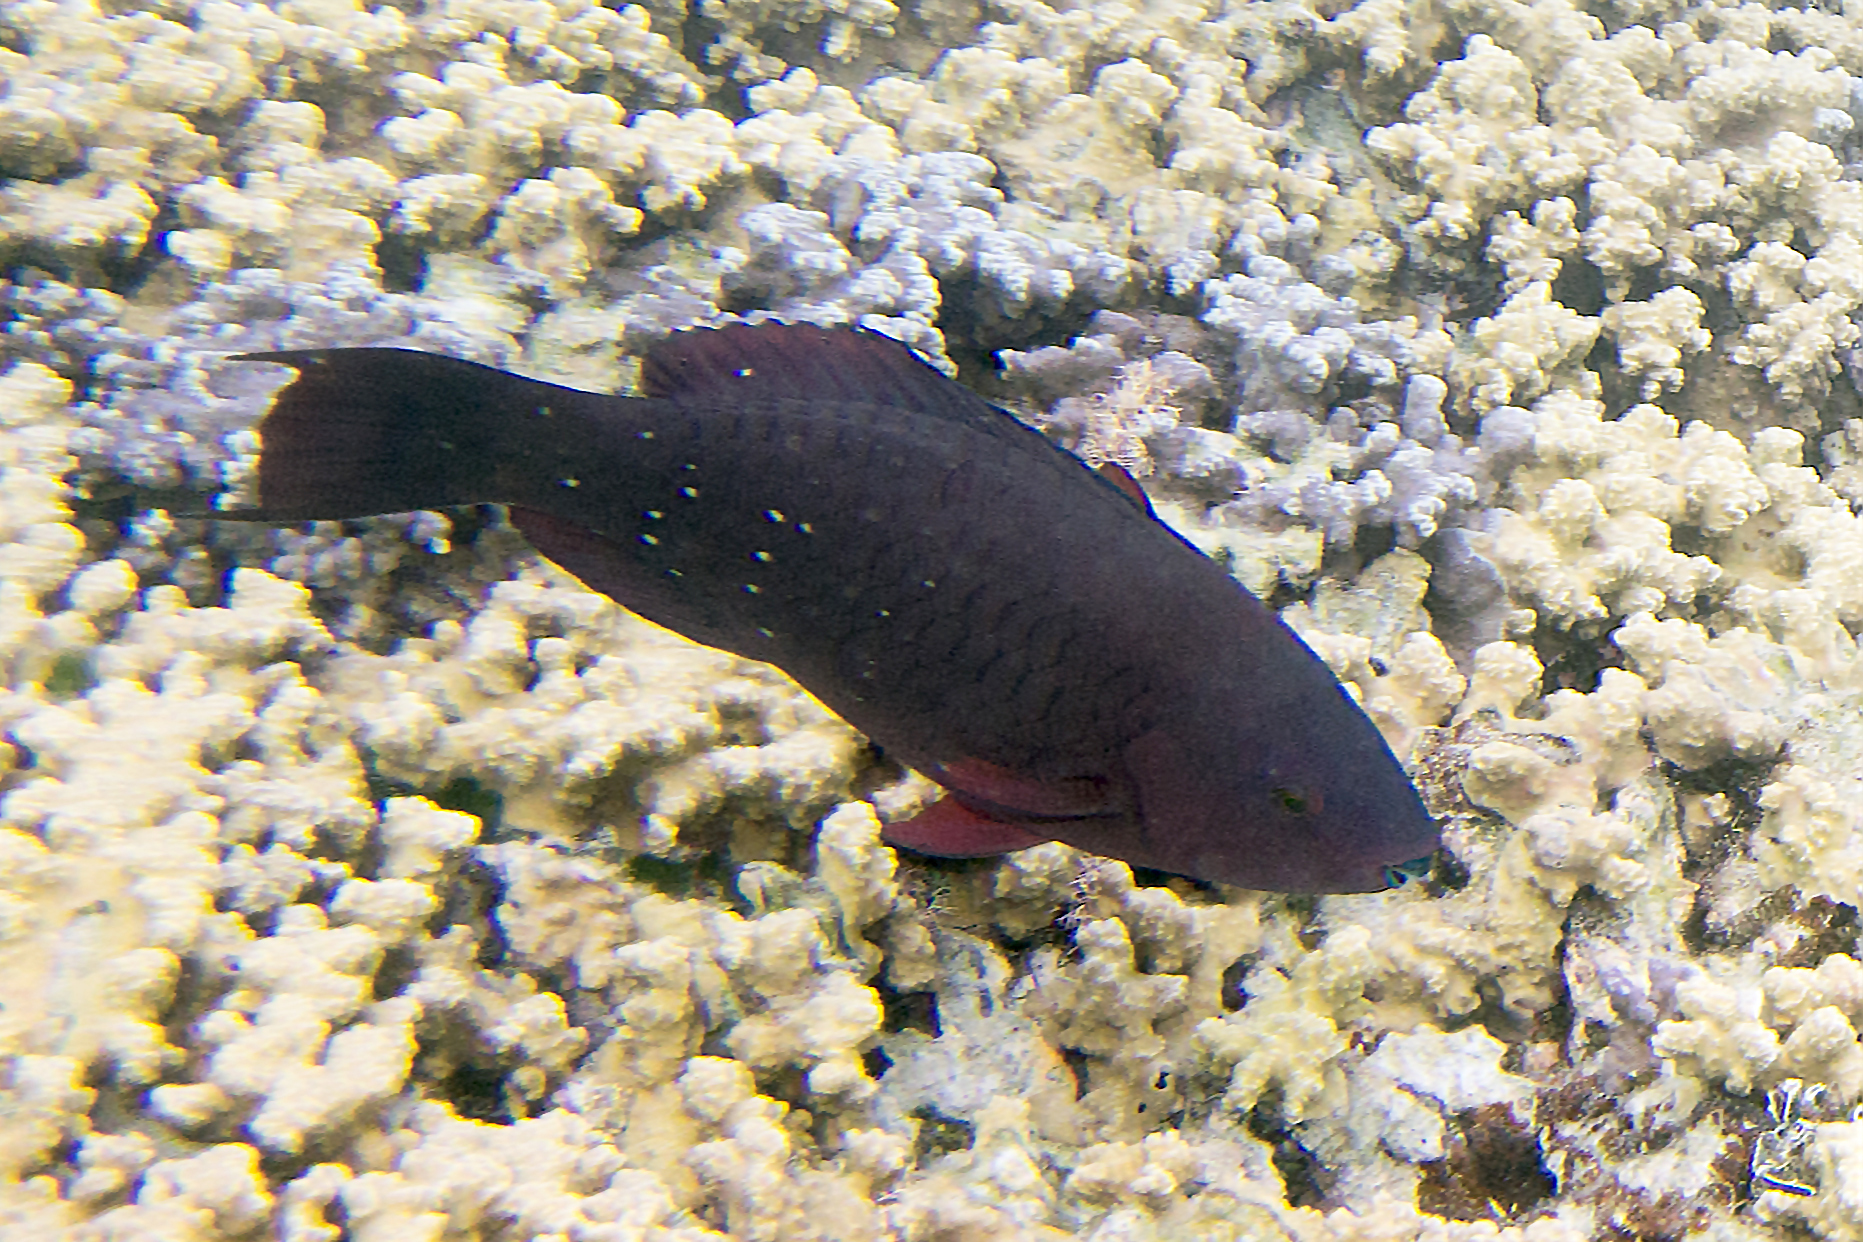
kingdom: Animalia
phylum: Chordata
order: Perciformes
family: Scaridae
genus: Scarus
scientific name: Scarus altipinnis
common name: Minifin parrotfish
